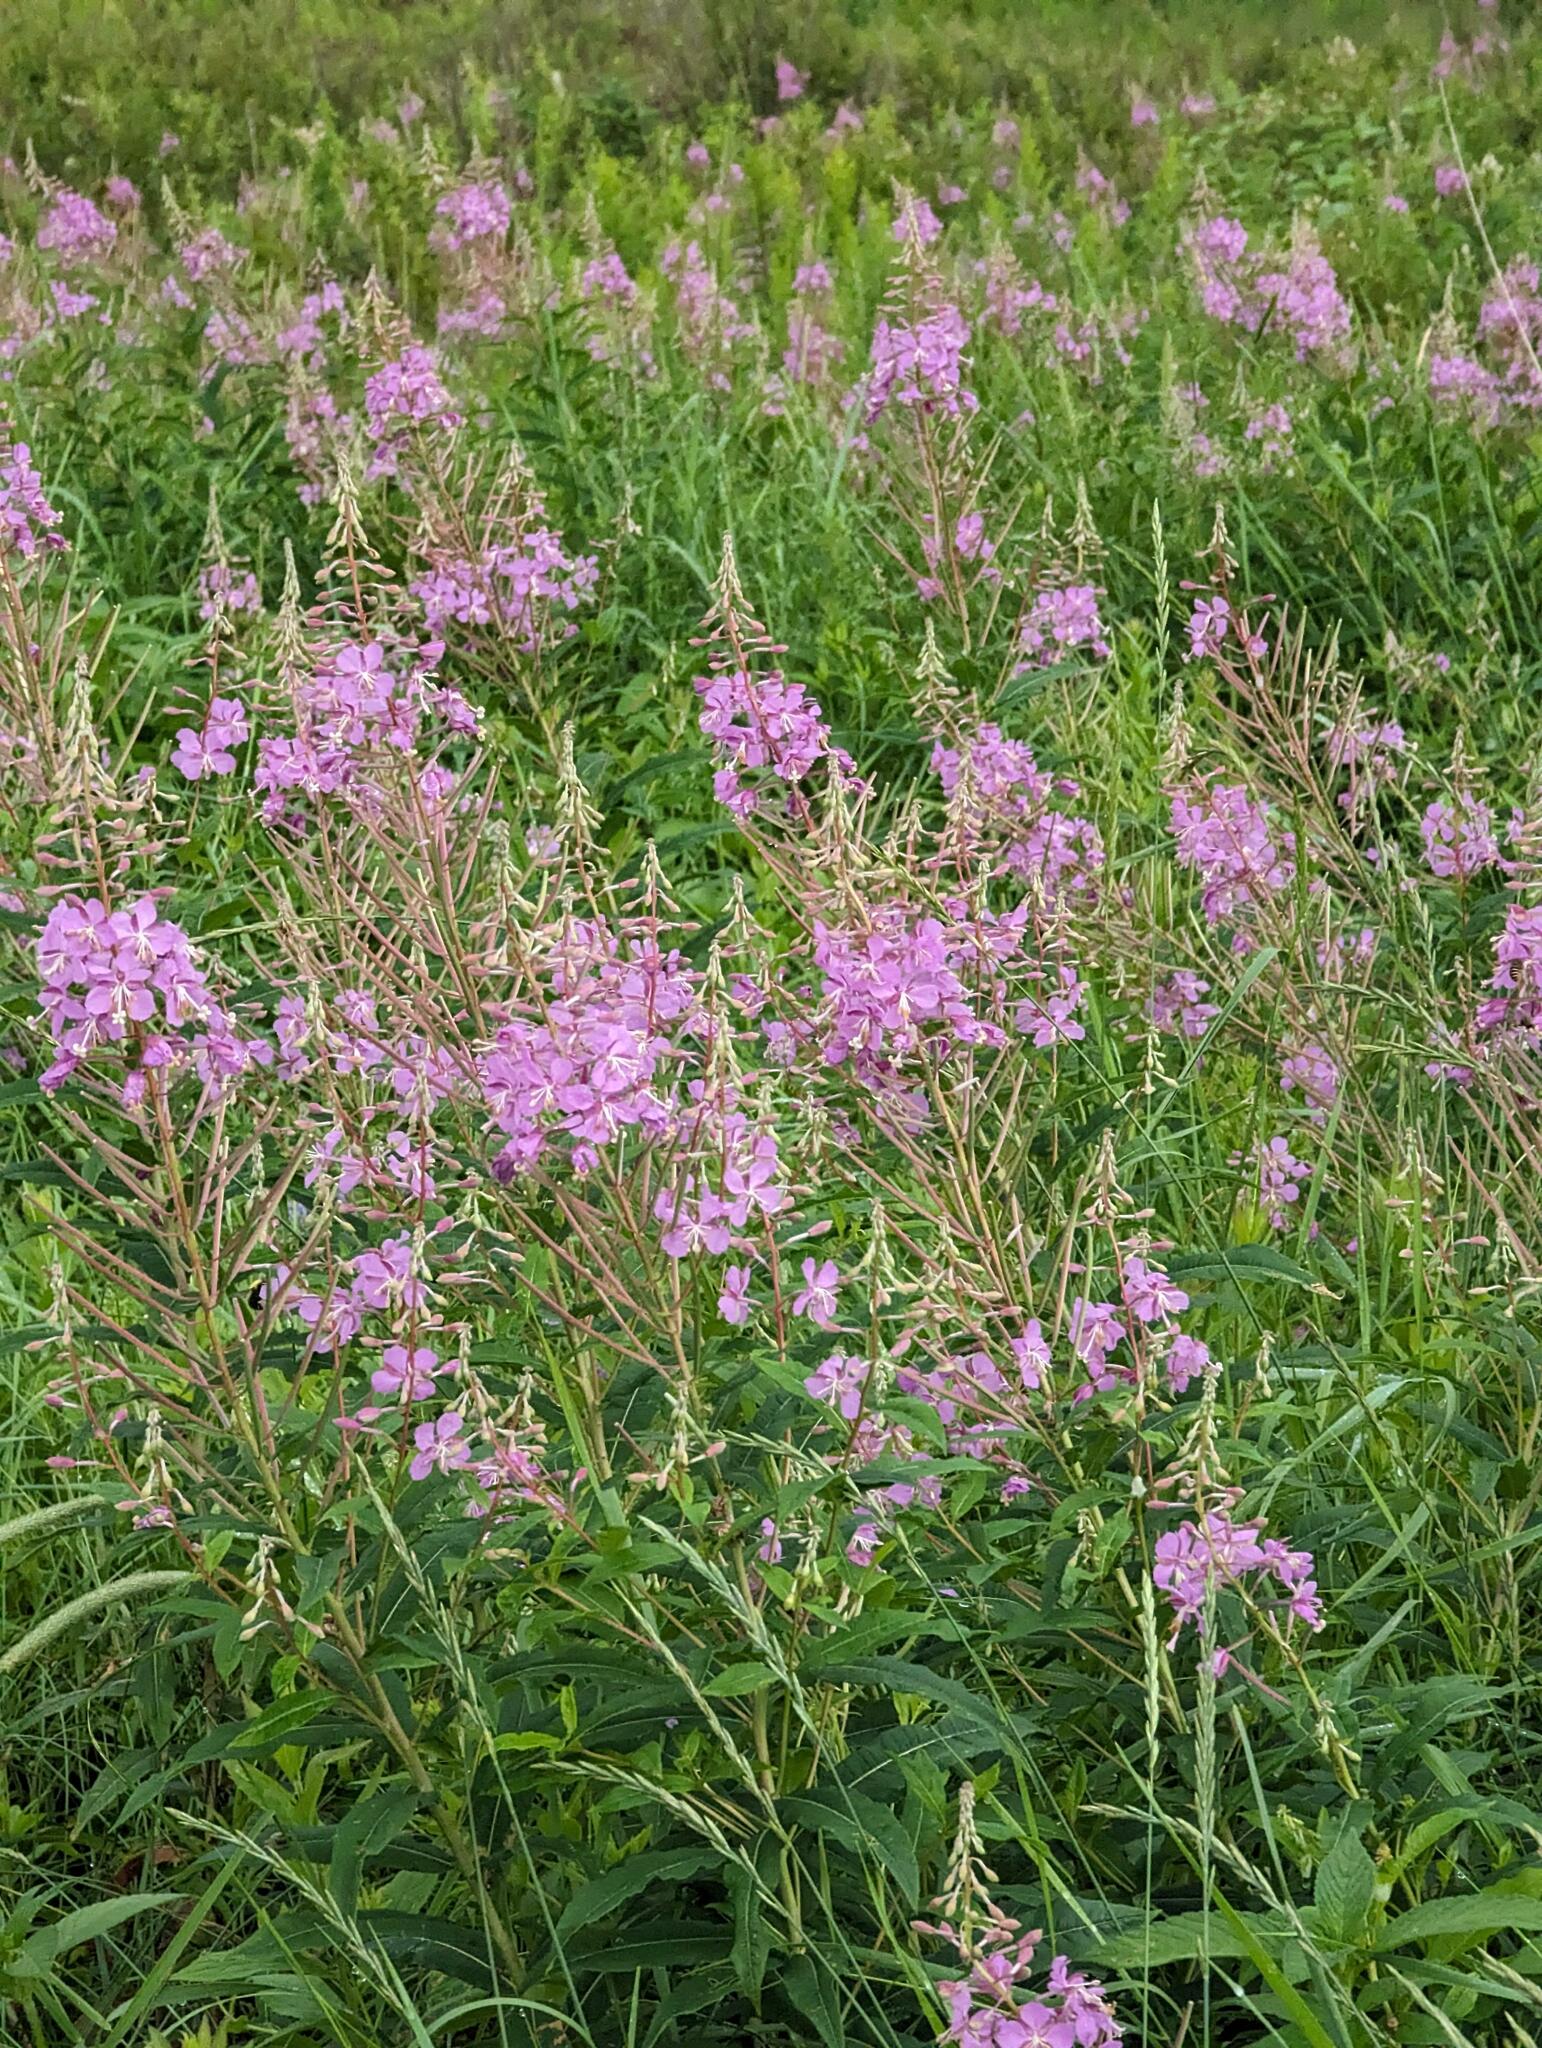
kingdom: Plantae
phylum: Tracheophyta
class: Magnoliopsida
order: Myrtales
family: Onagraceae
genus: Chamaenerion
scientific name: Chamaenerion angustifolium
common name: Fireweed
